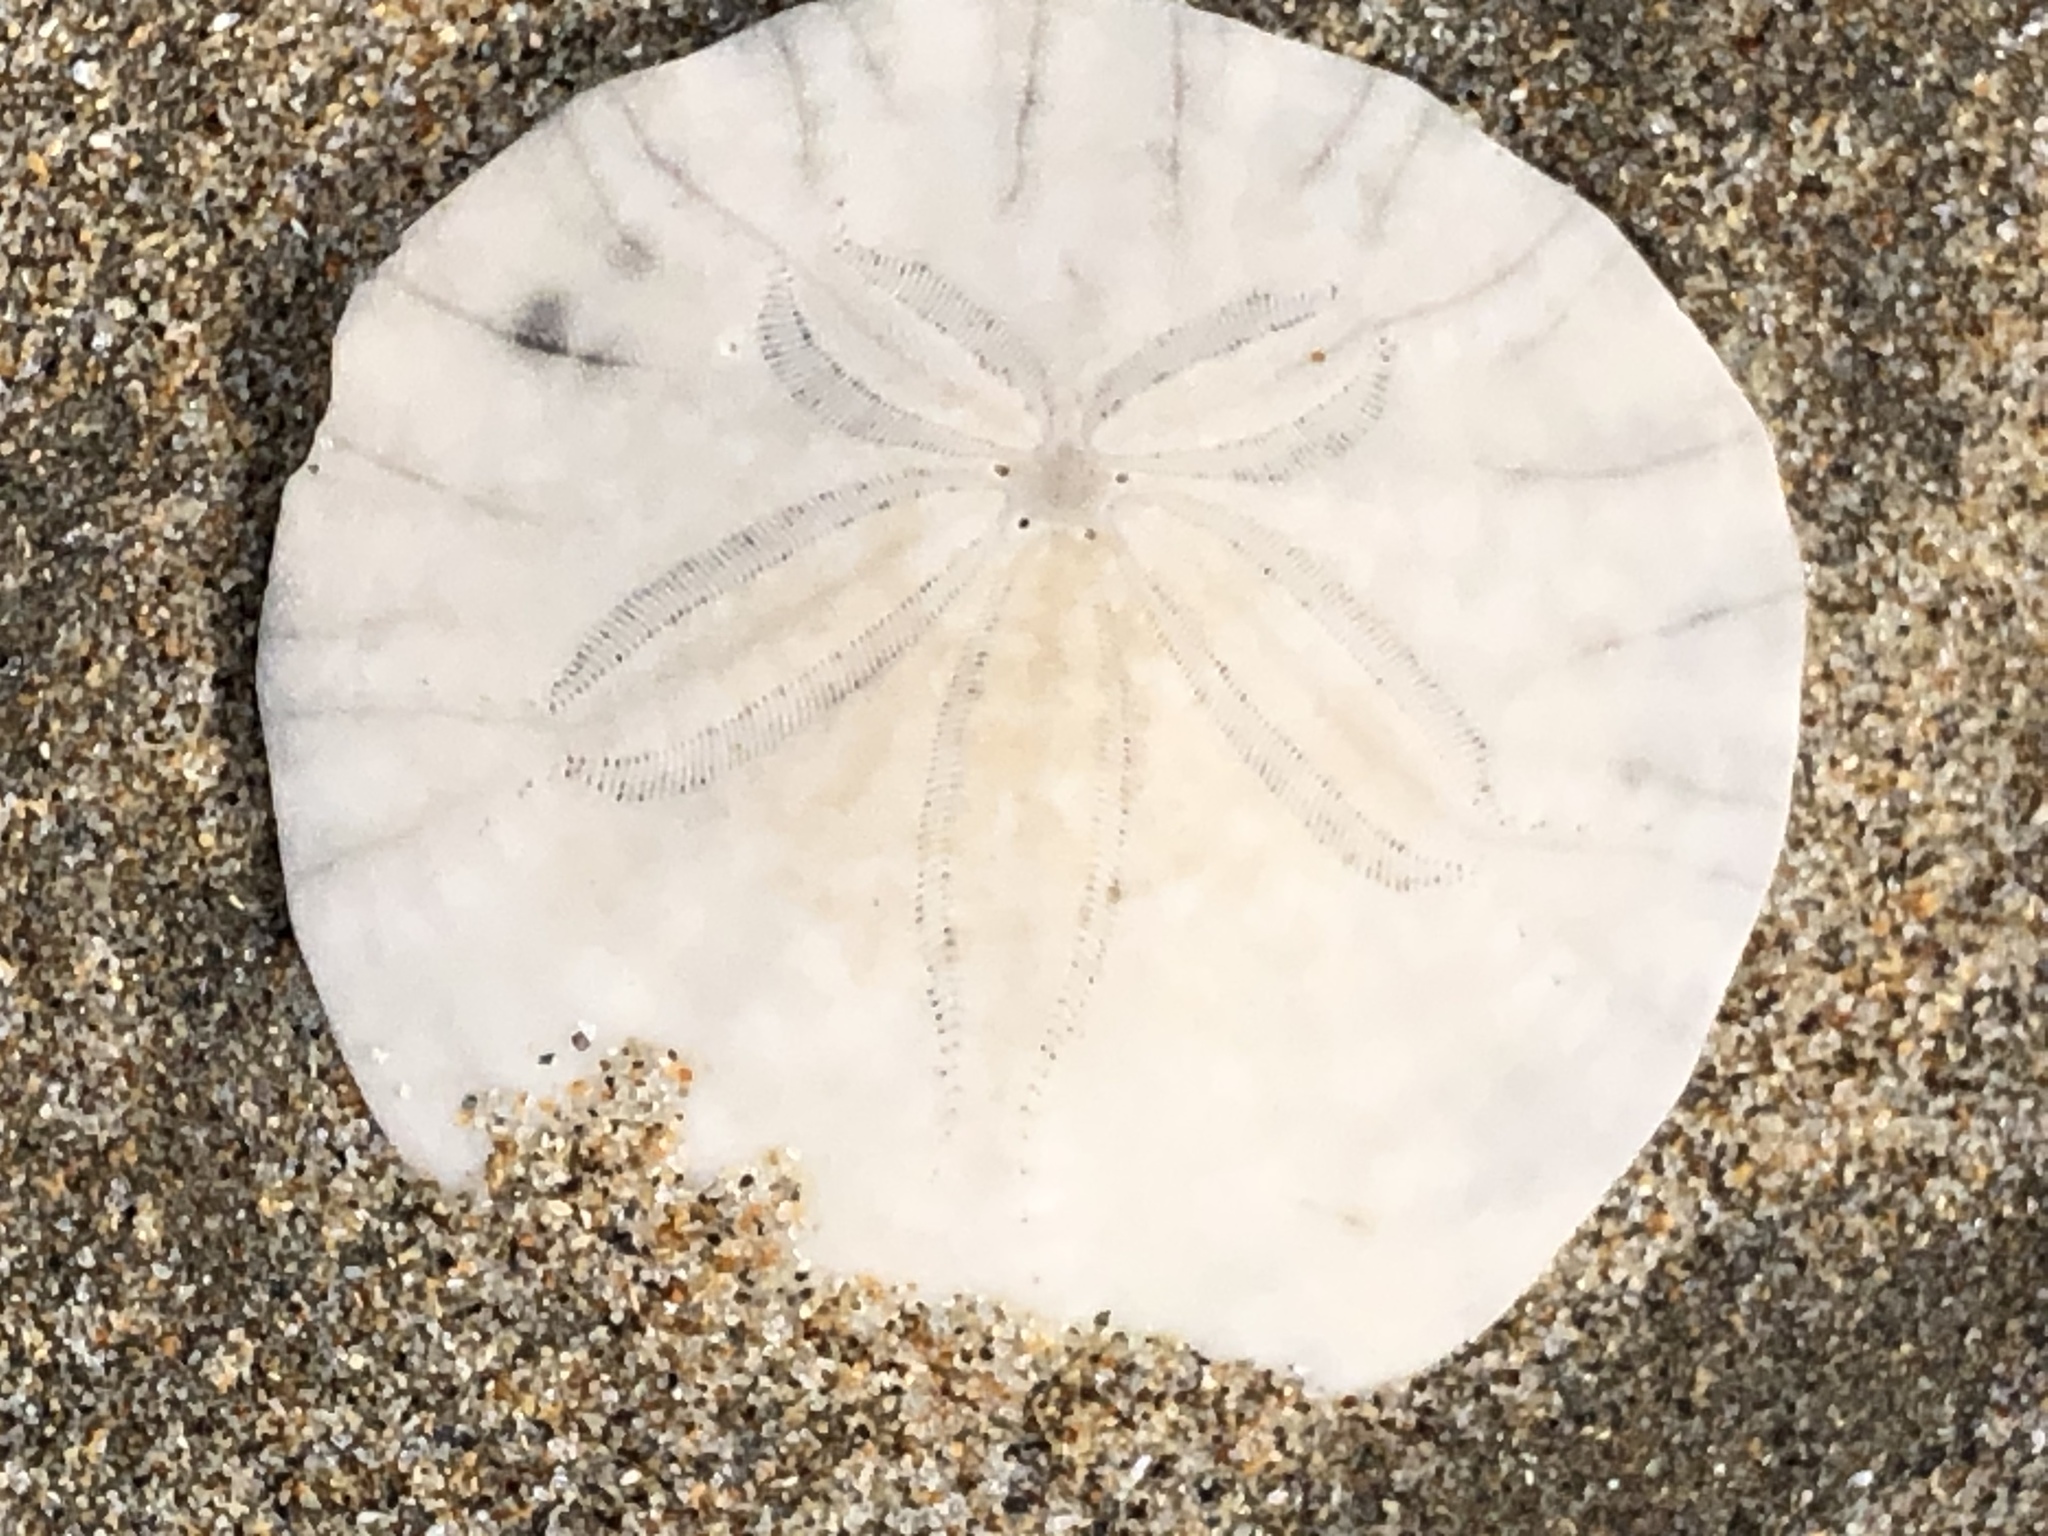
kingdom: Animalia
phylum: Echinodermata
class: Echinoidea
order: Echinolampadacea
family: Dendrasteridae
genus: Dendraster
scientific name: Dendraster excentricus
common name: Eccentric sand dollar sea urchin
